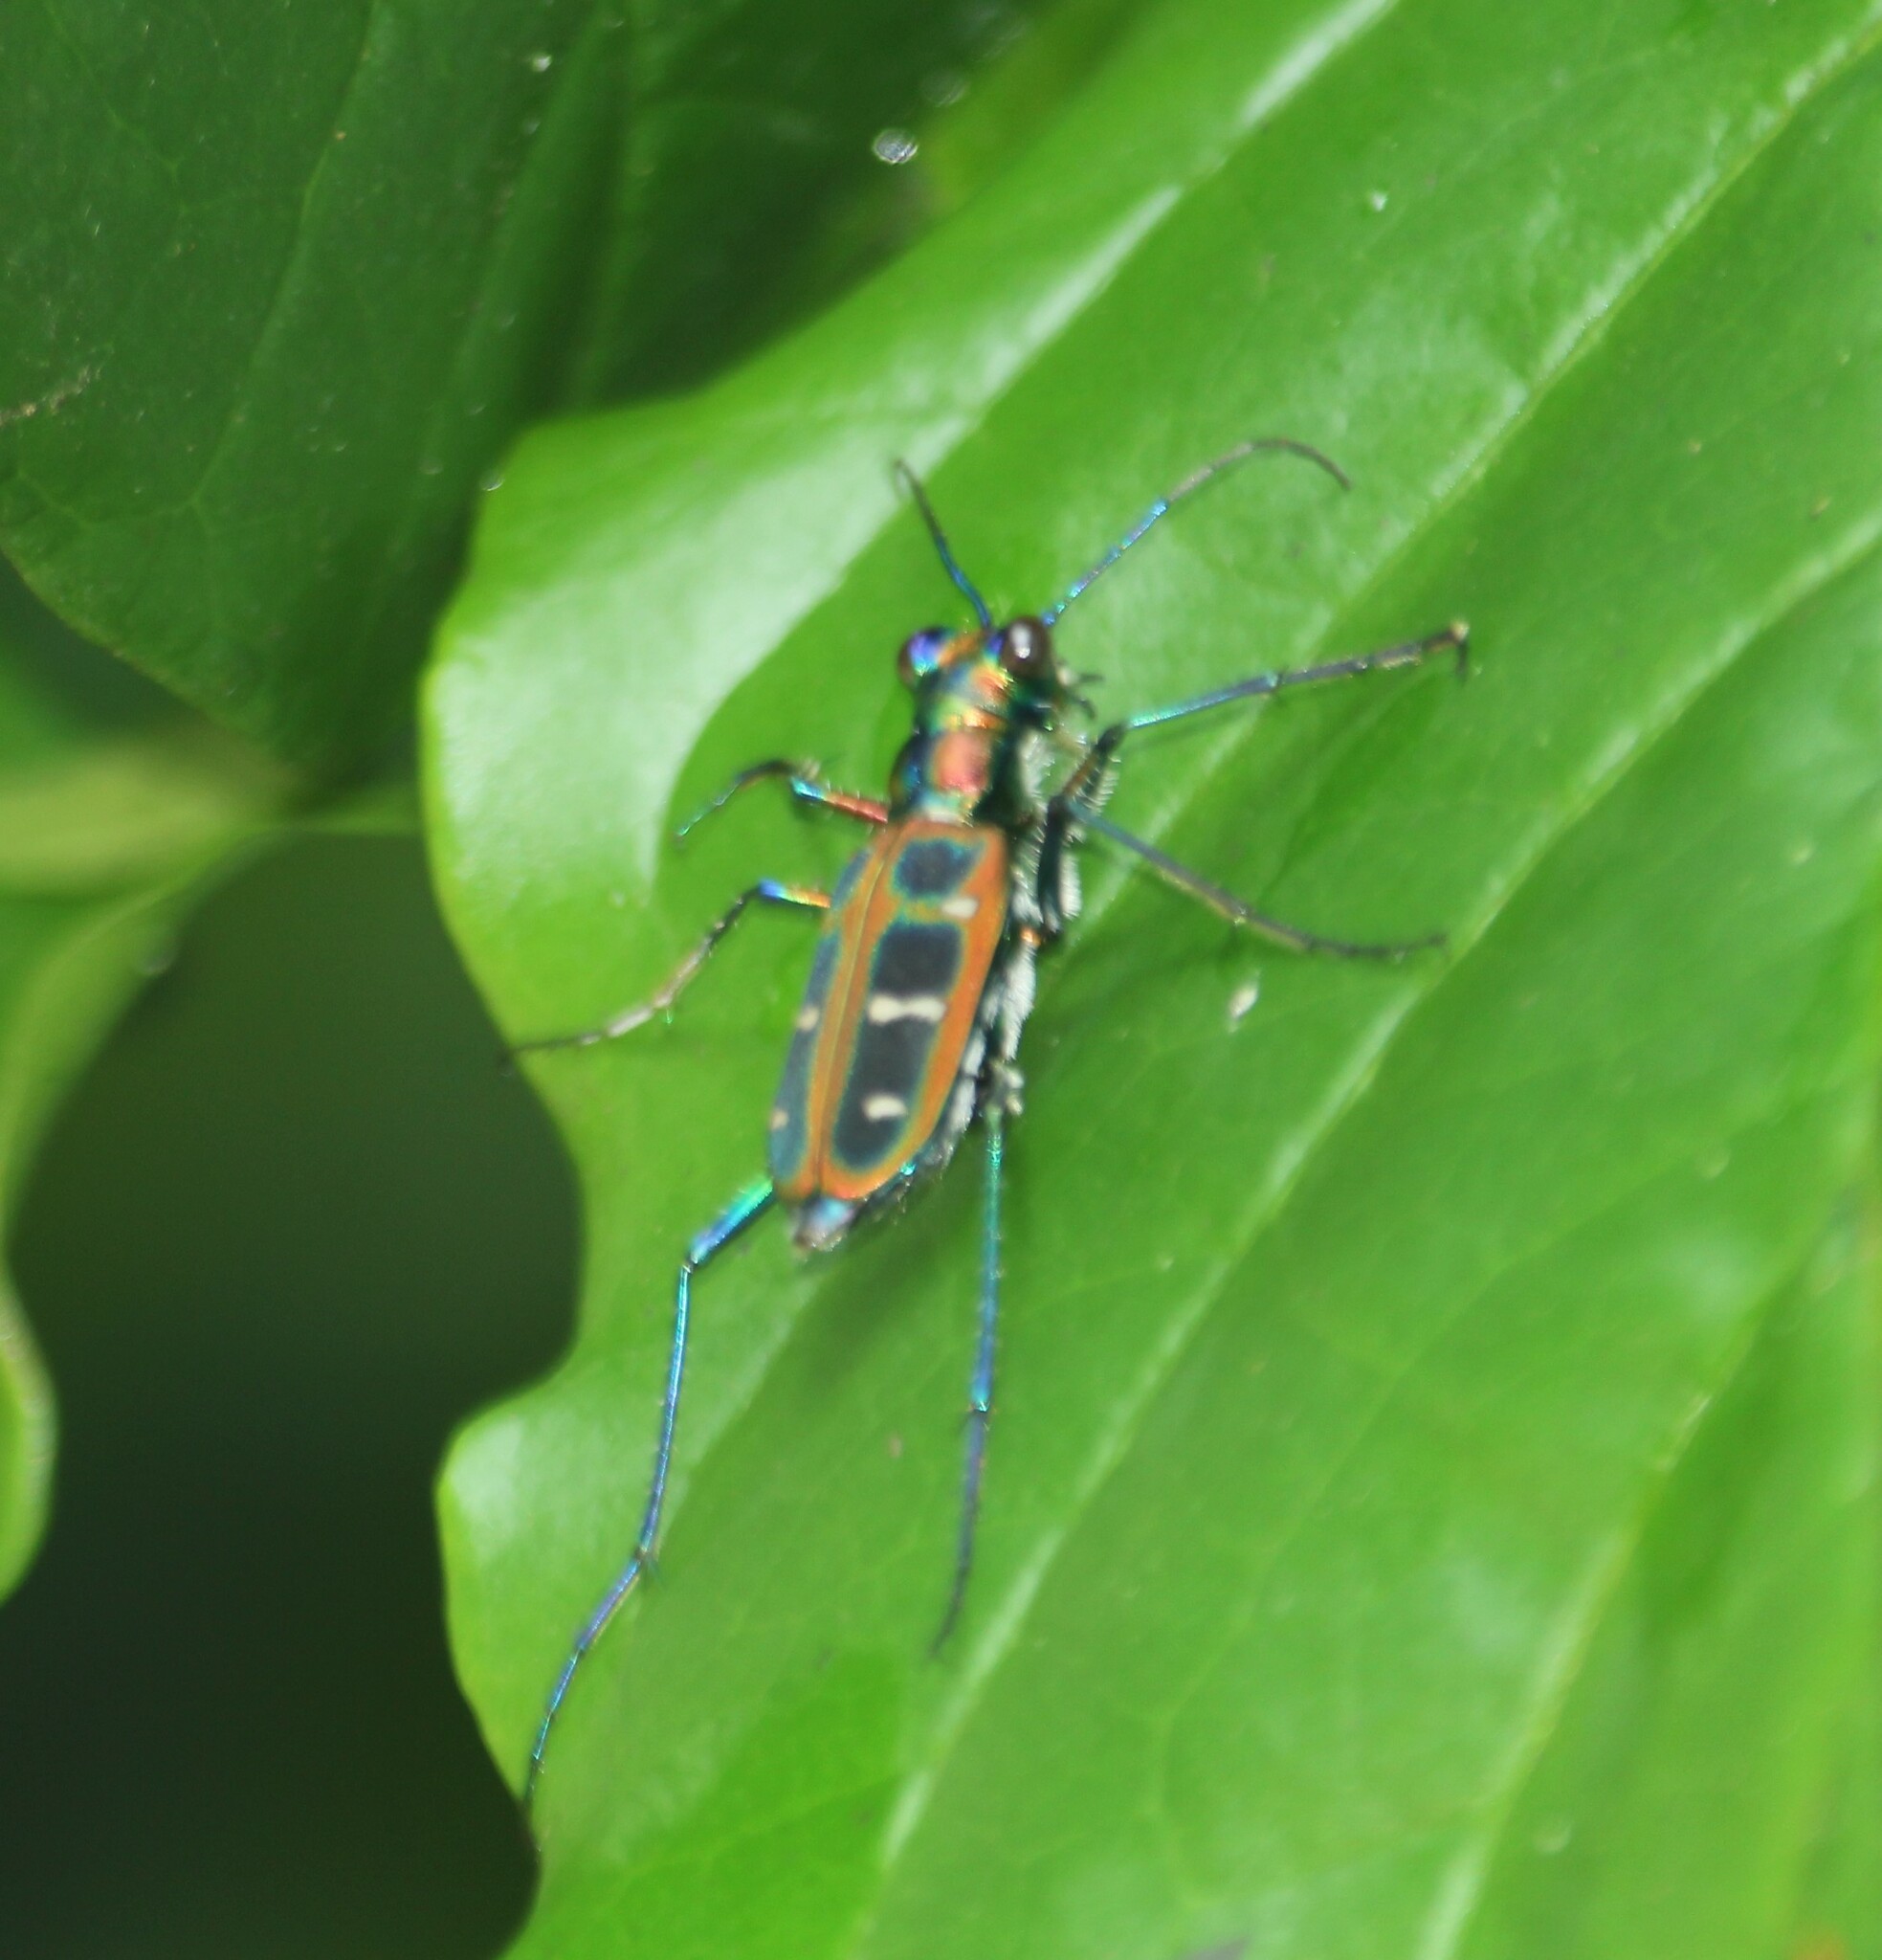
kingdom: Animalia
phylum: Arthropoda
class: Insecta
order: Coleoptera
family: Carabidae
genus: Cicindela
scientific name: Cicindela barmanica
